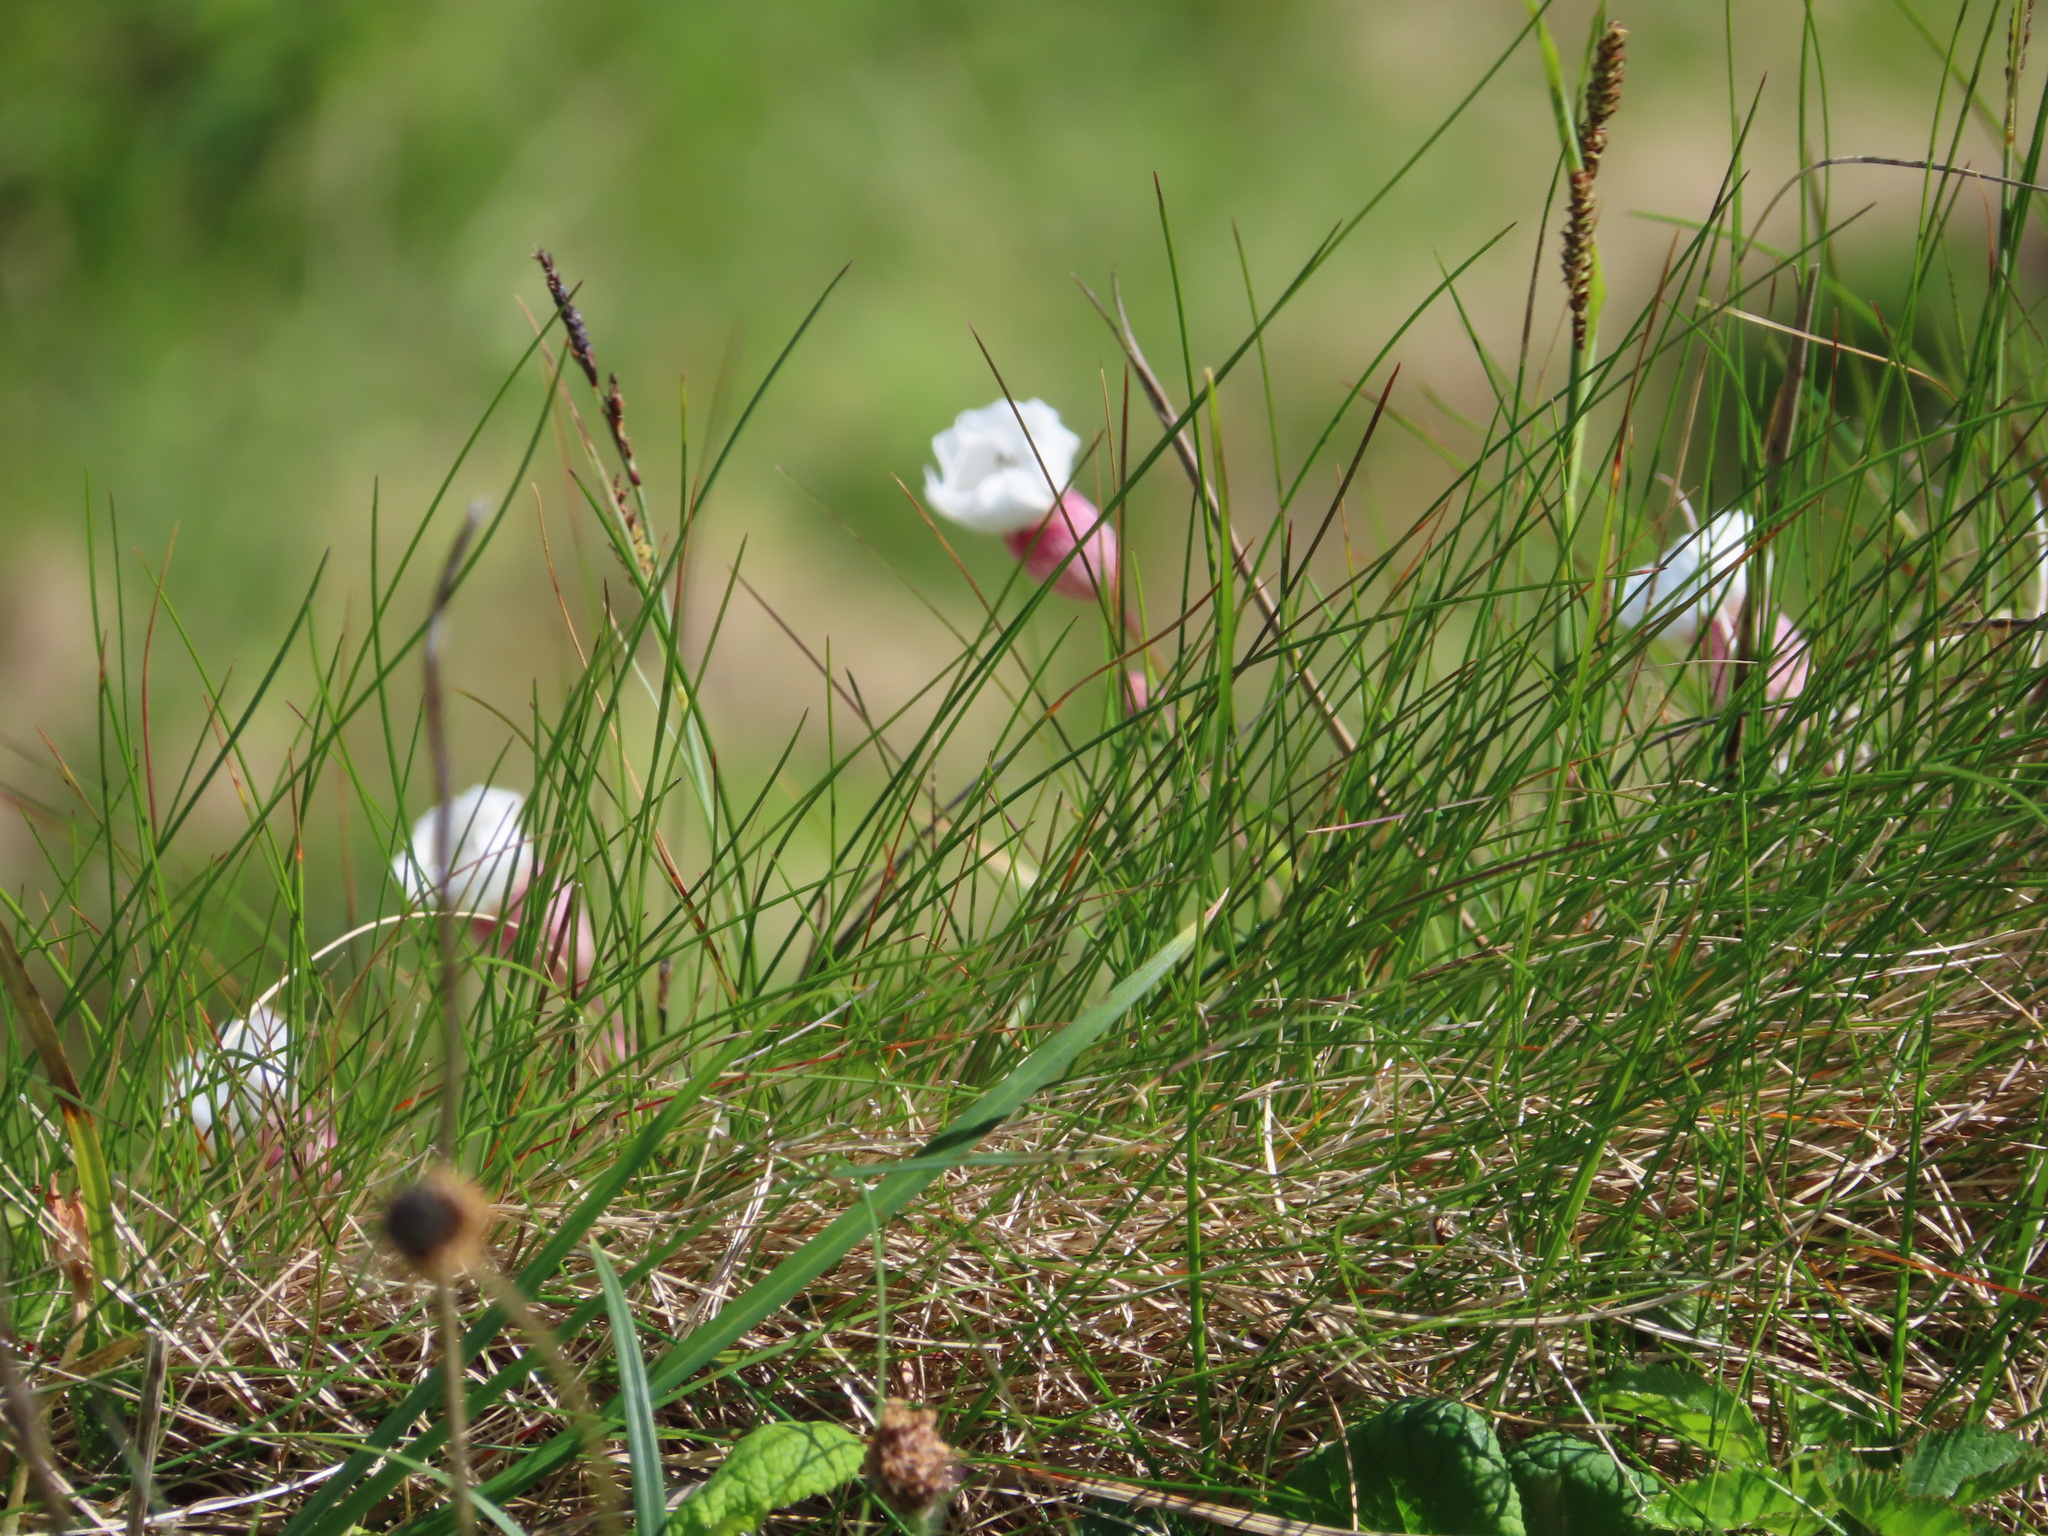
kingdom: Plantae
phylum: Tracheophyta
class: Magnoliopsida
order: Caryophyllales
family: Caryophyllaceae
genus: Silene
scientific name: Silene uniflora
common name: Sea campion
